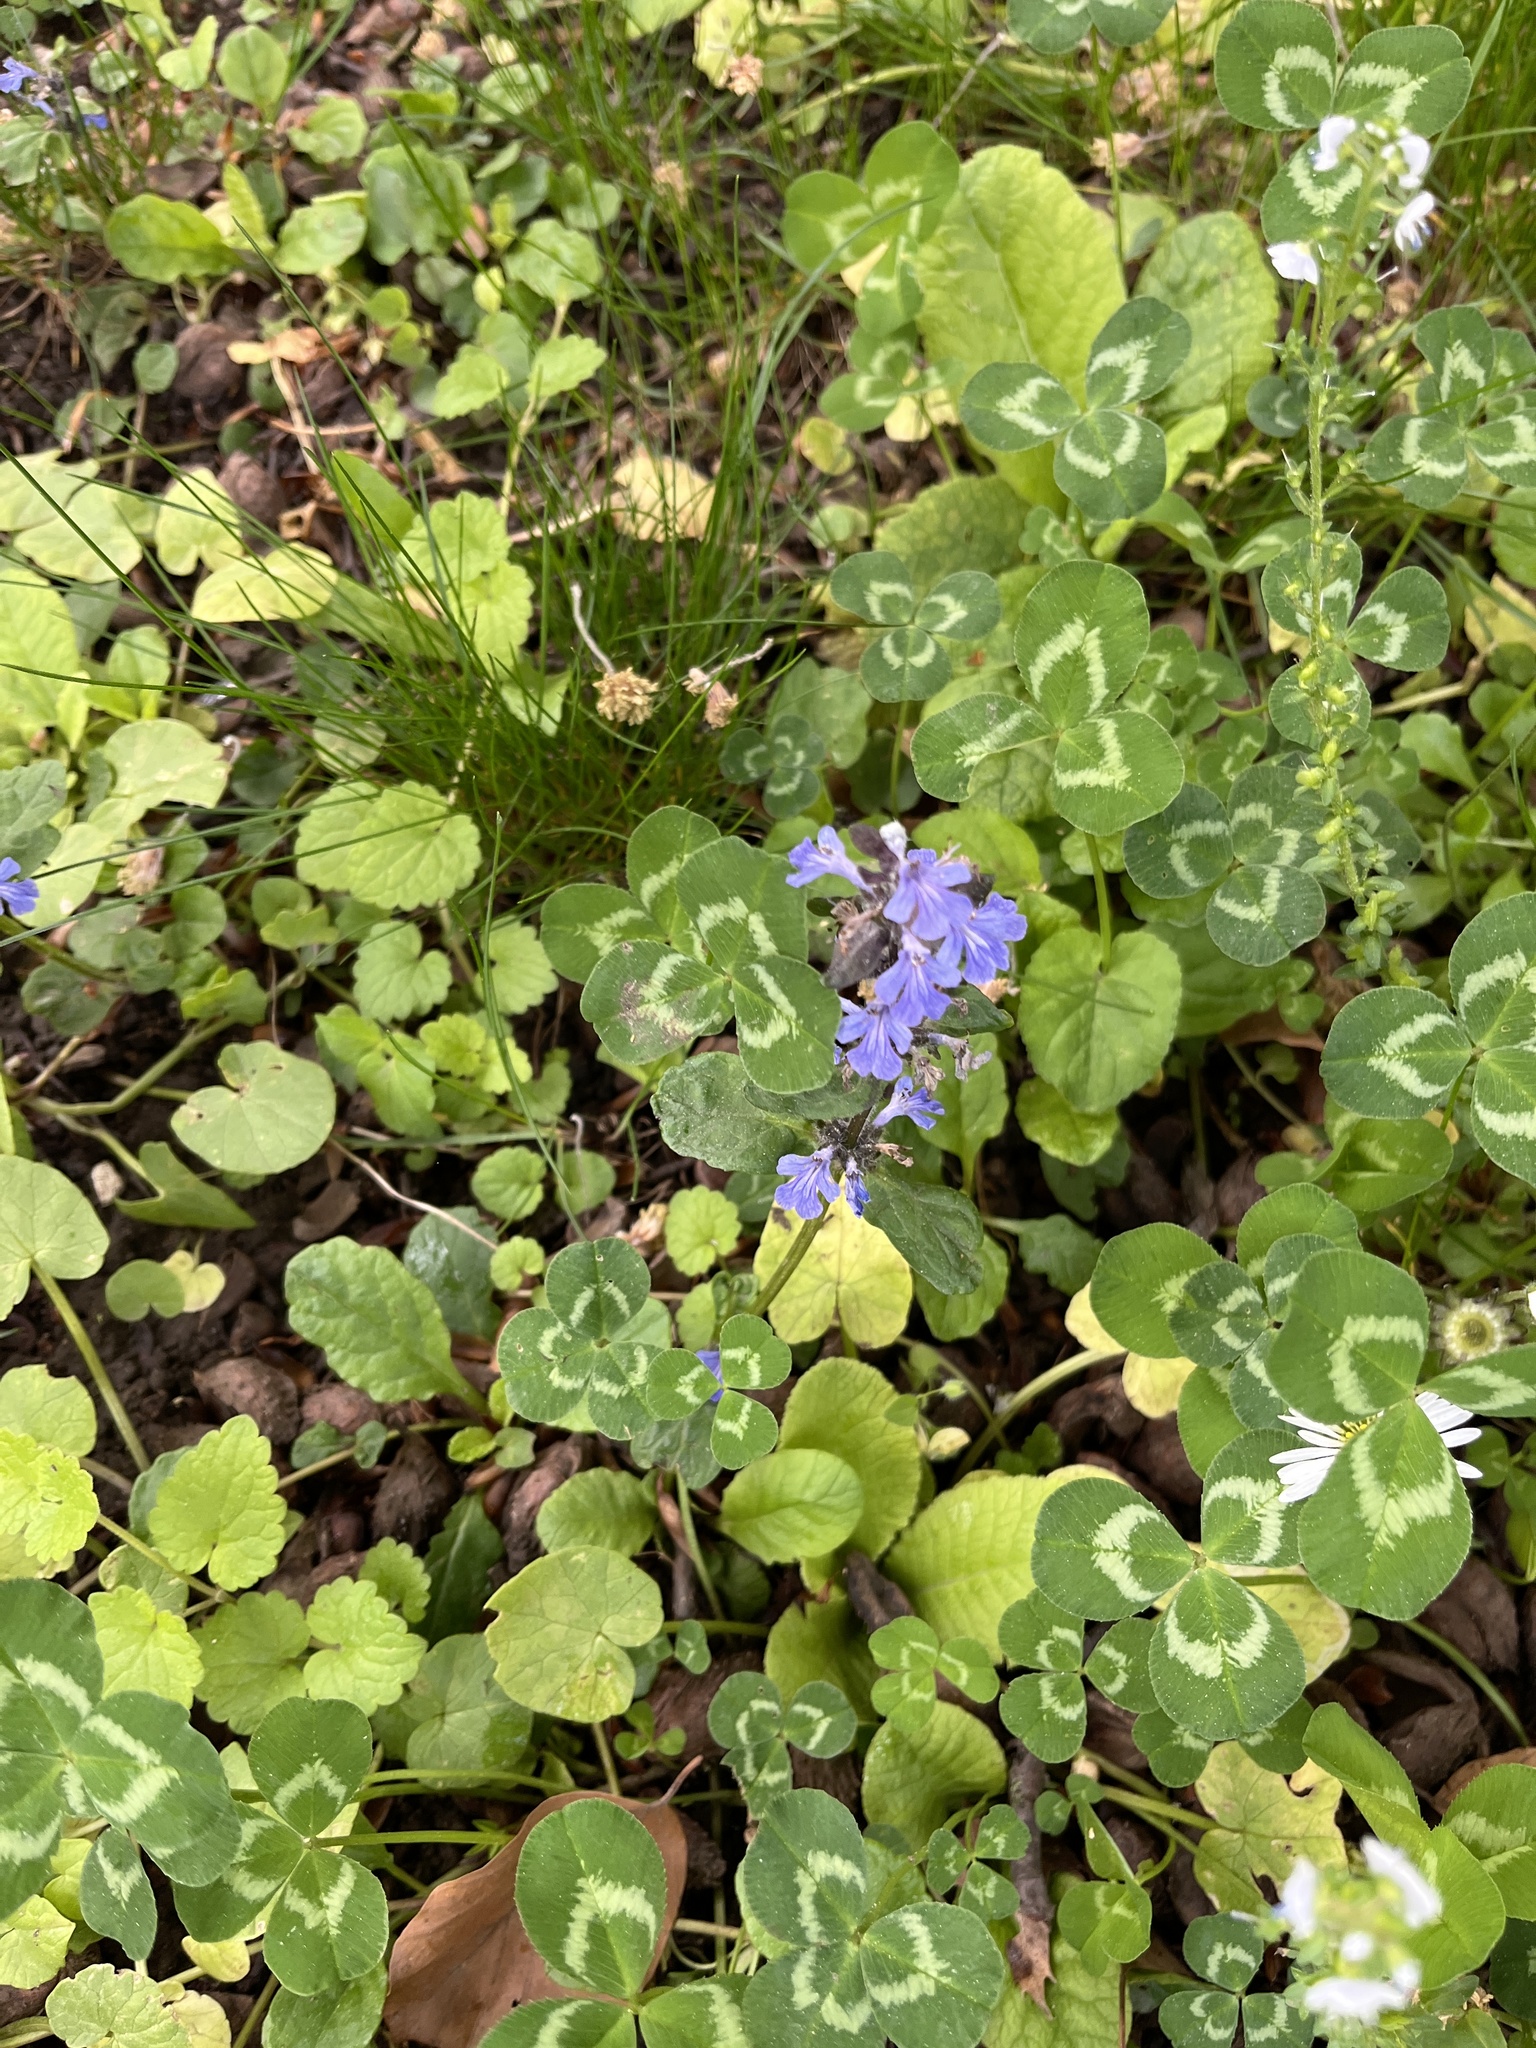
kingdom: Plantae
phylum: Tracheophyta
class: Magnoliopsida
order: Lamiales
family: Lamiaceae
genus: Ajuga
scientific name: Ajuga reptans
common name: Bugle
